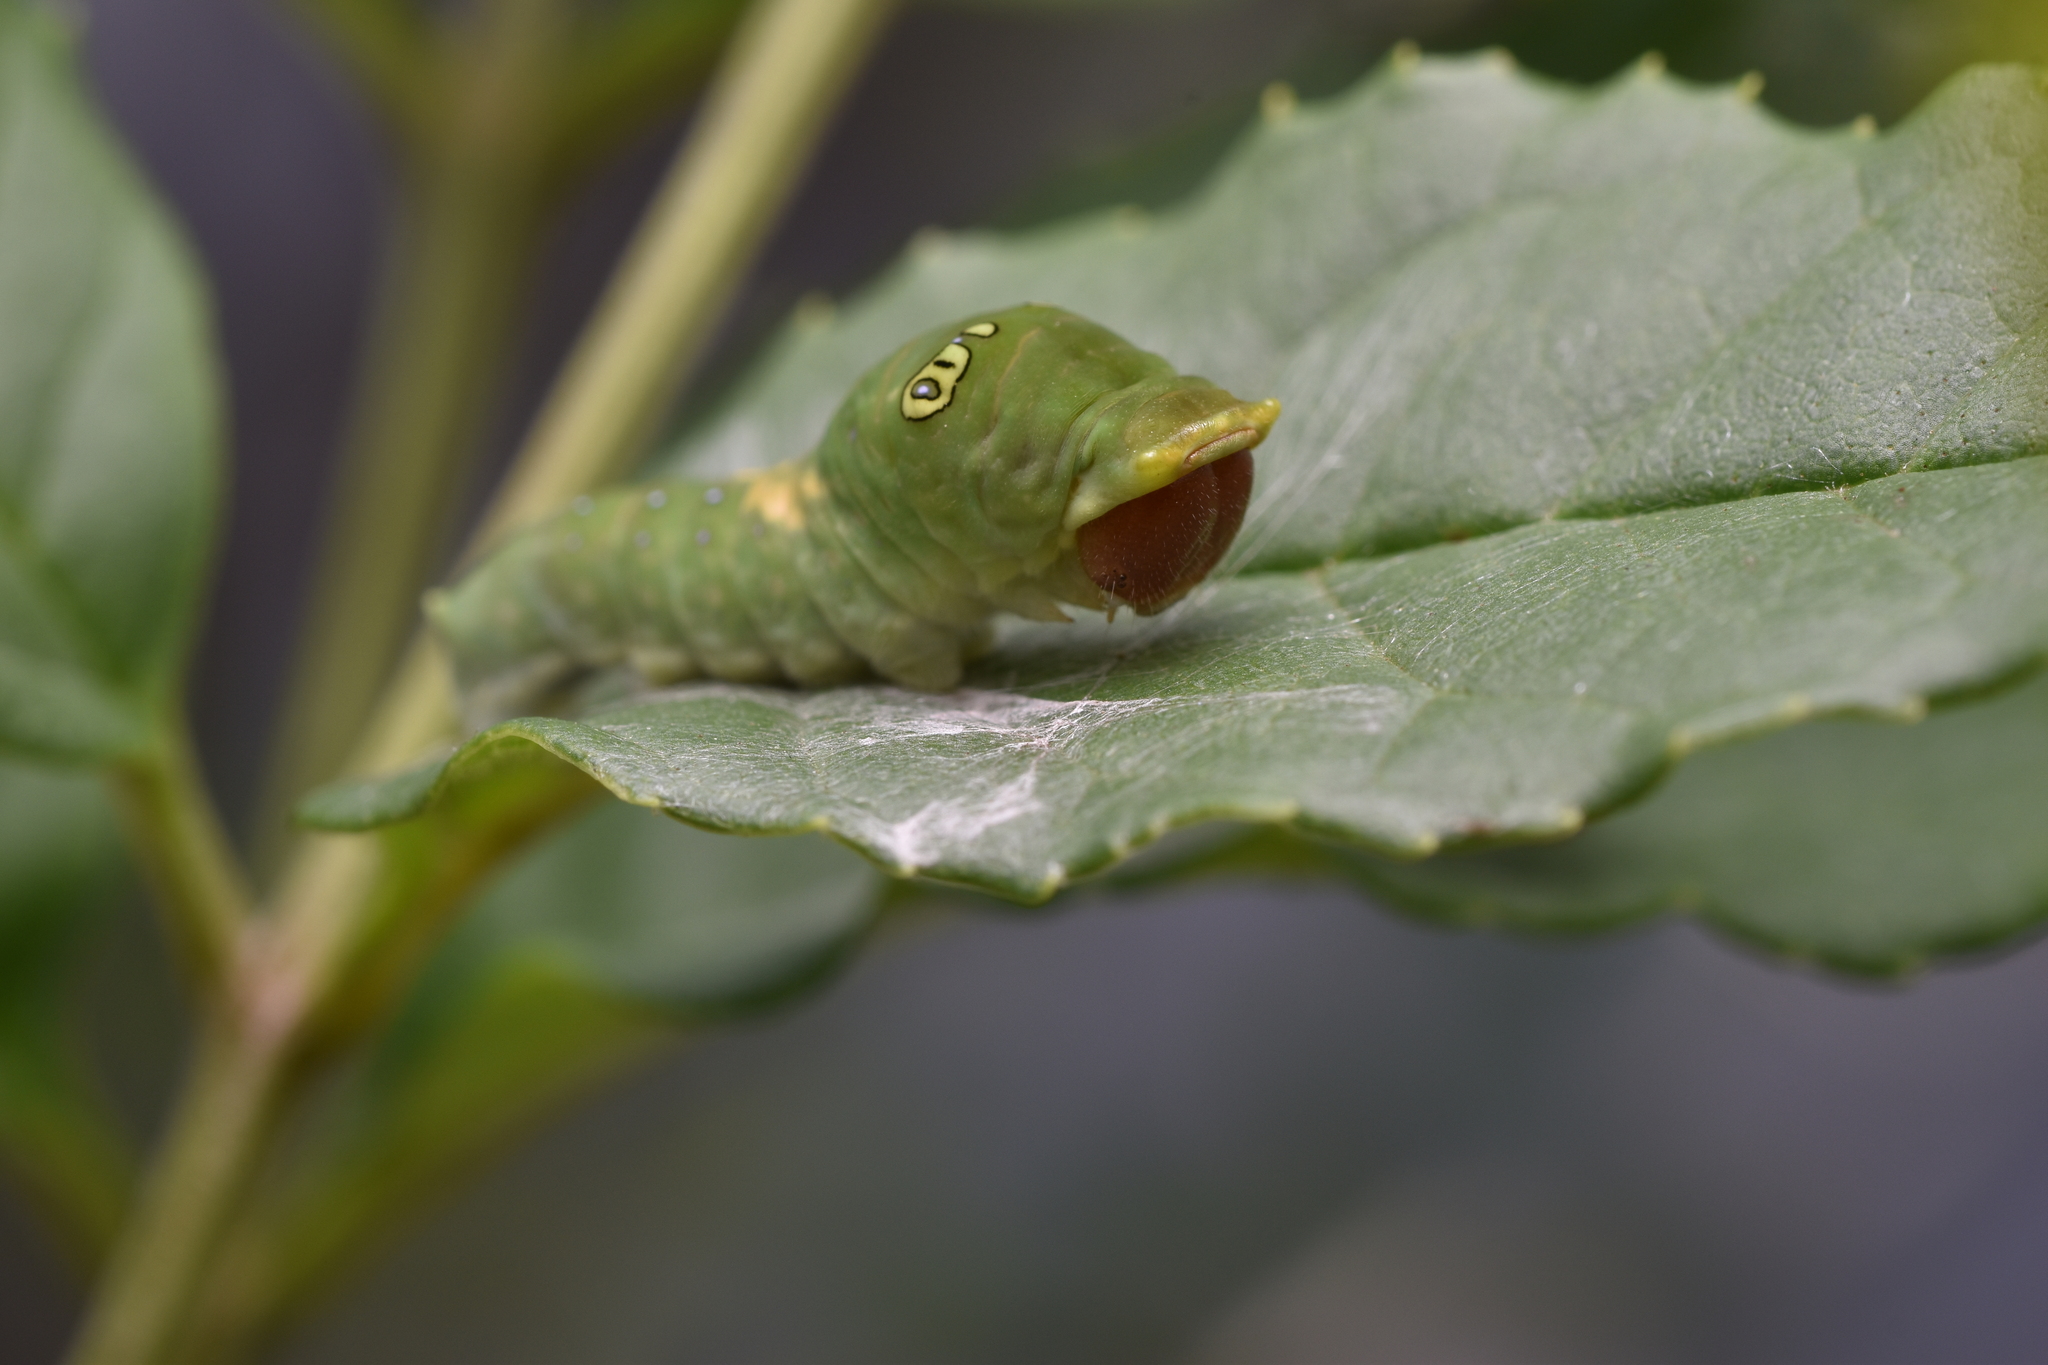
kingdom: Animalia
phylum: Arthropoda
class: Insecta
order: Lepidoptera
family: Papilionidae
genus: Papilio
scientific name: Papilio multicaudata
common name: Two-tailed tiger swallowtail
